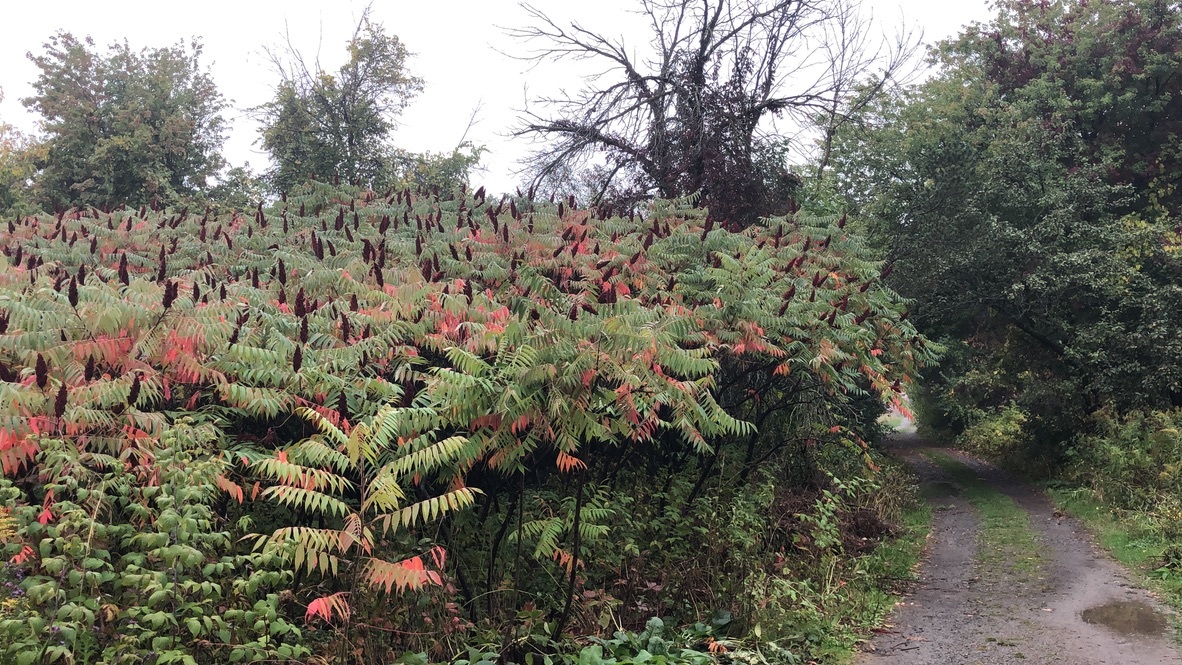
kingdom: Plantae
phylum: Tracheophyta
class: Magnoliopsida
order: Sapindales
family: Anacardiaceae
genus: Rhus
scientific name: Rhus typhina
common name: Staghorn sumac
